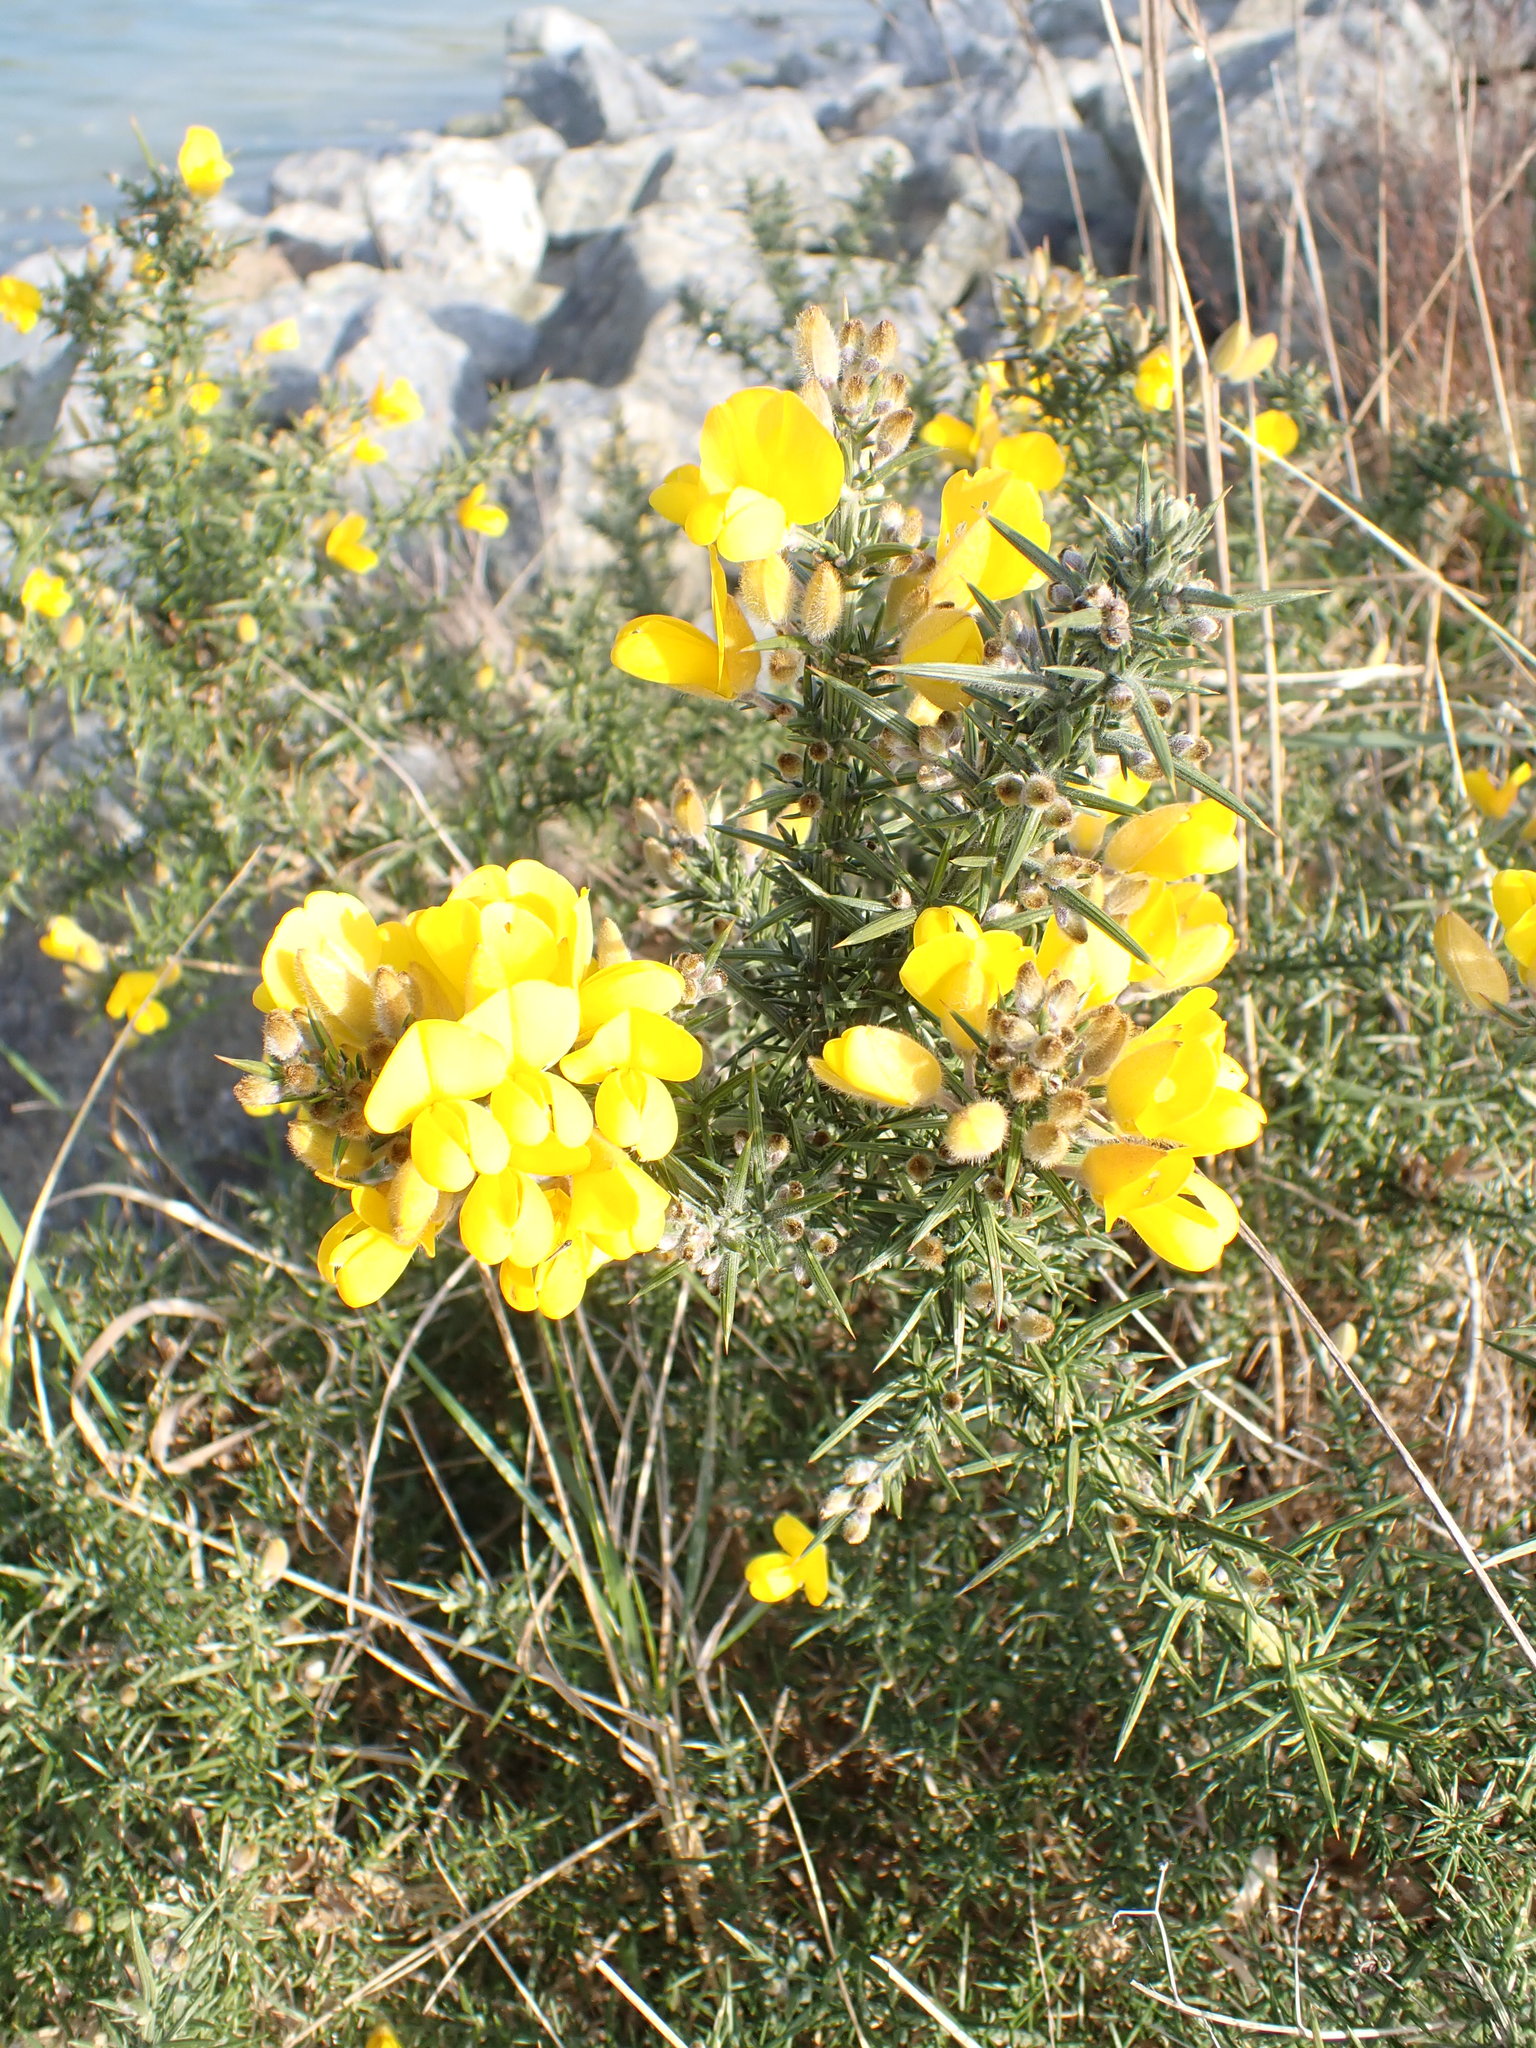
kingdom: Plantae
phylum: Tracheophyta
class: Magnoliopsida
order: Fabales
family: Fabaceae
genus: Ulex
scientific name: Ulex europaeus
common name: Common gorse
